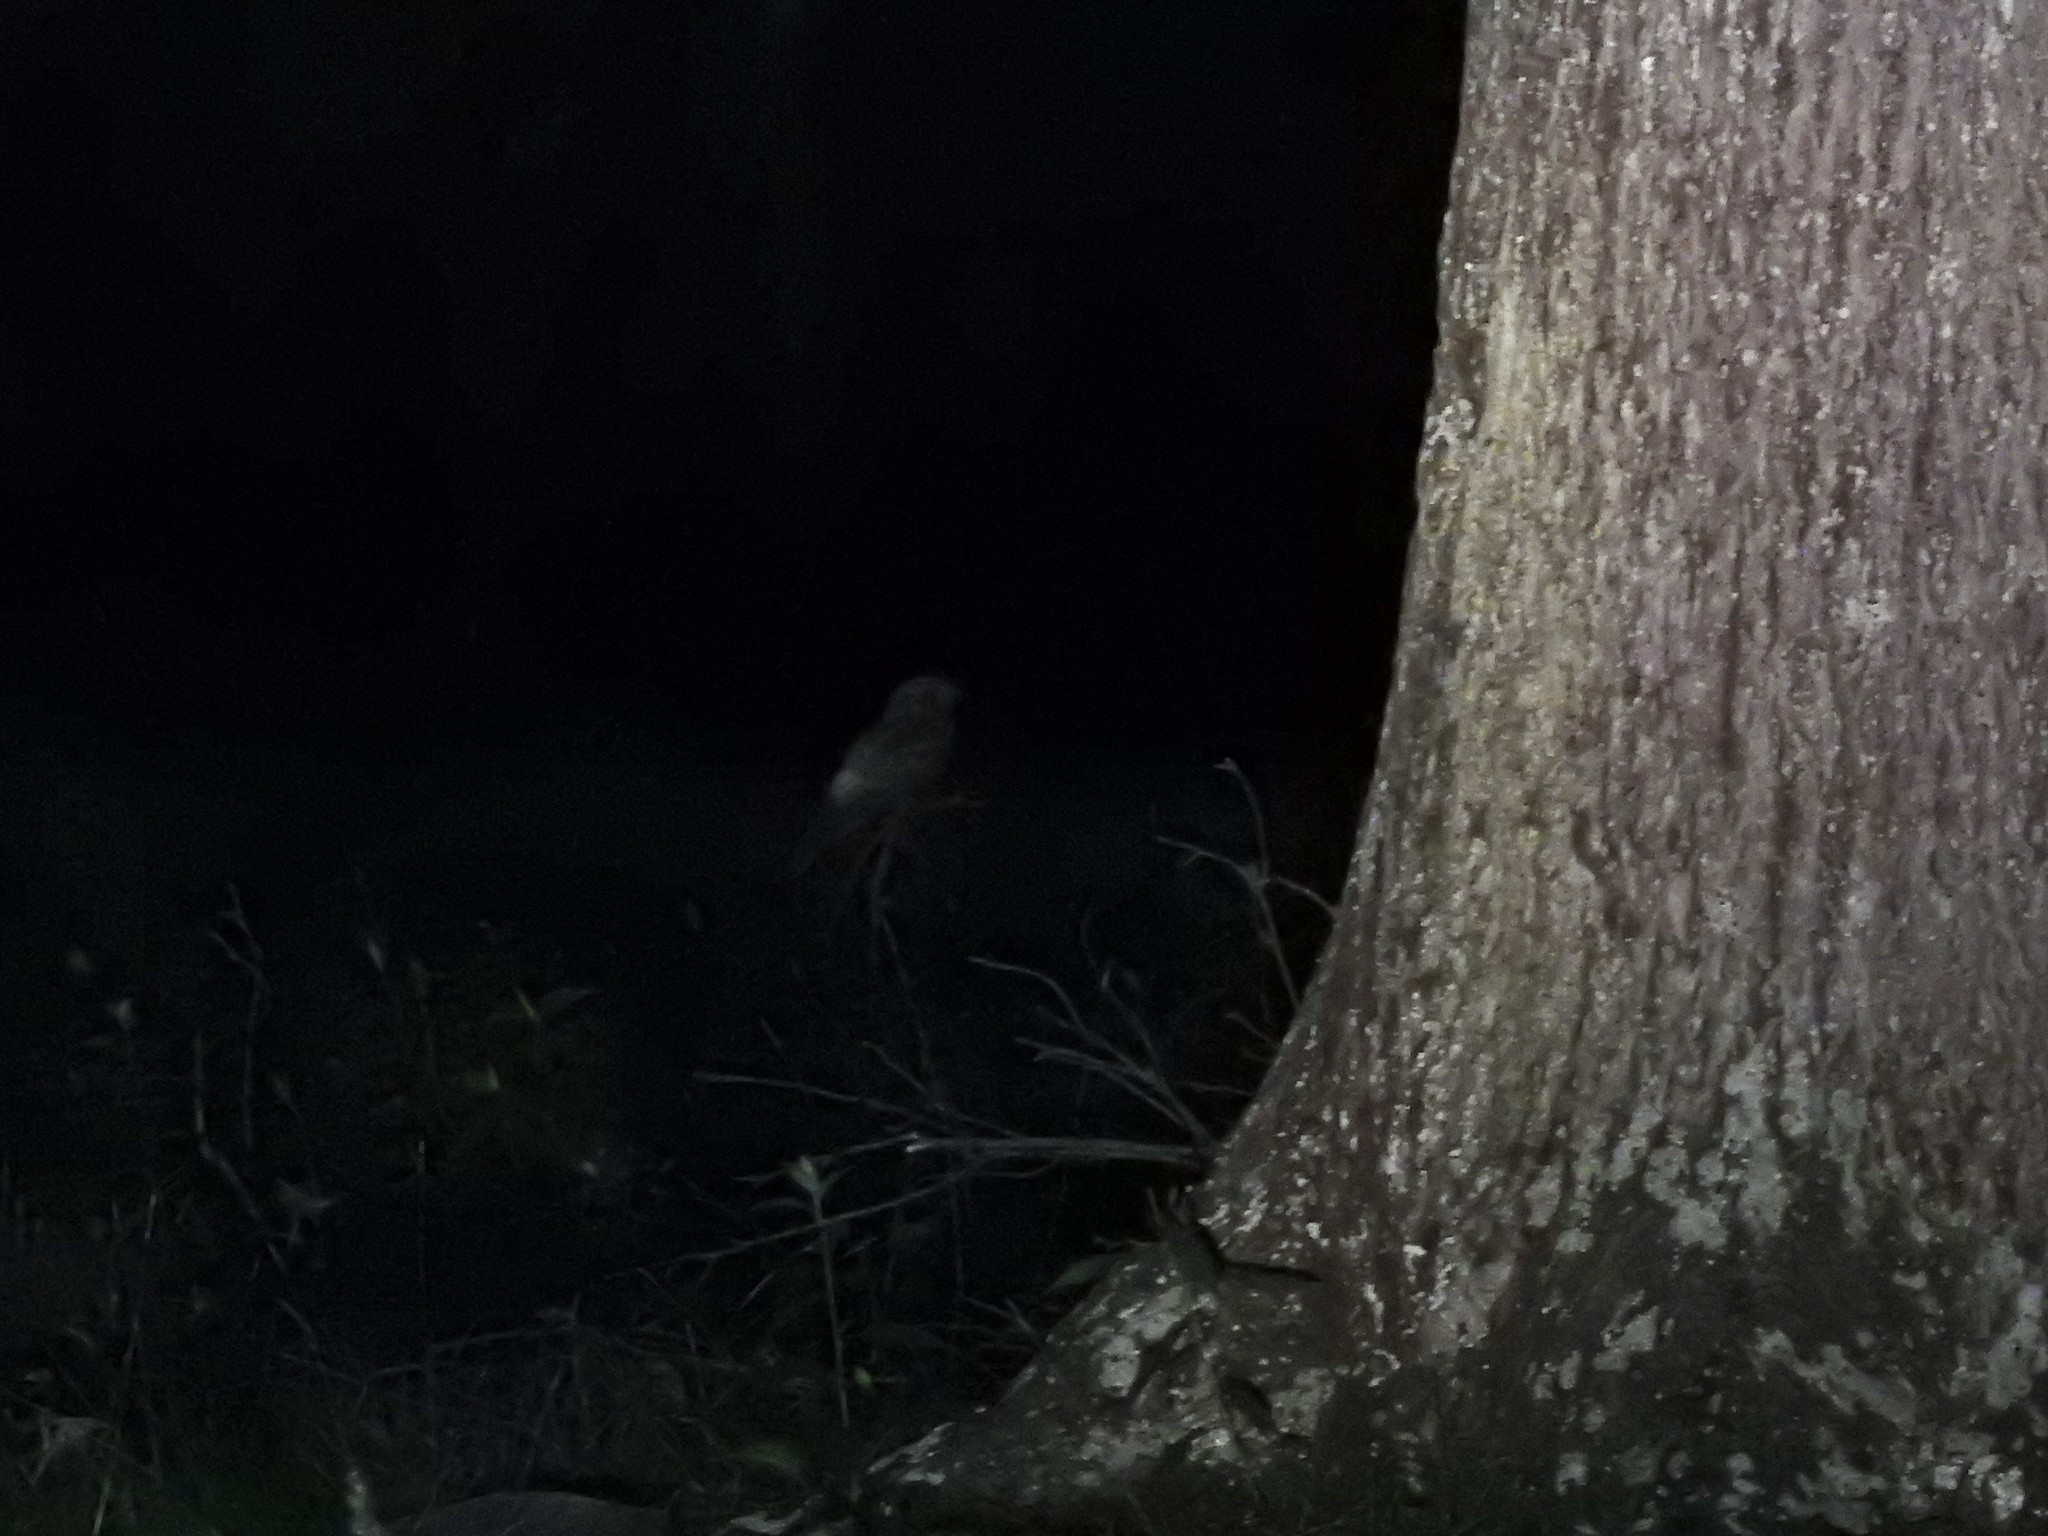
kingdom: Animalia
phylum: Chordata
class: Aves
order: Caprimulgiformes
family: Caprimulgidae
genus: Antrostomus
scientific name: Antrostomus carolinensis
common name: Chuck-will's-widow
